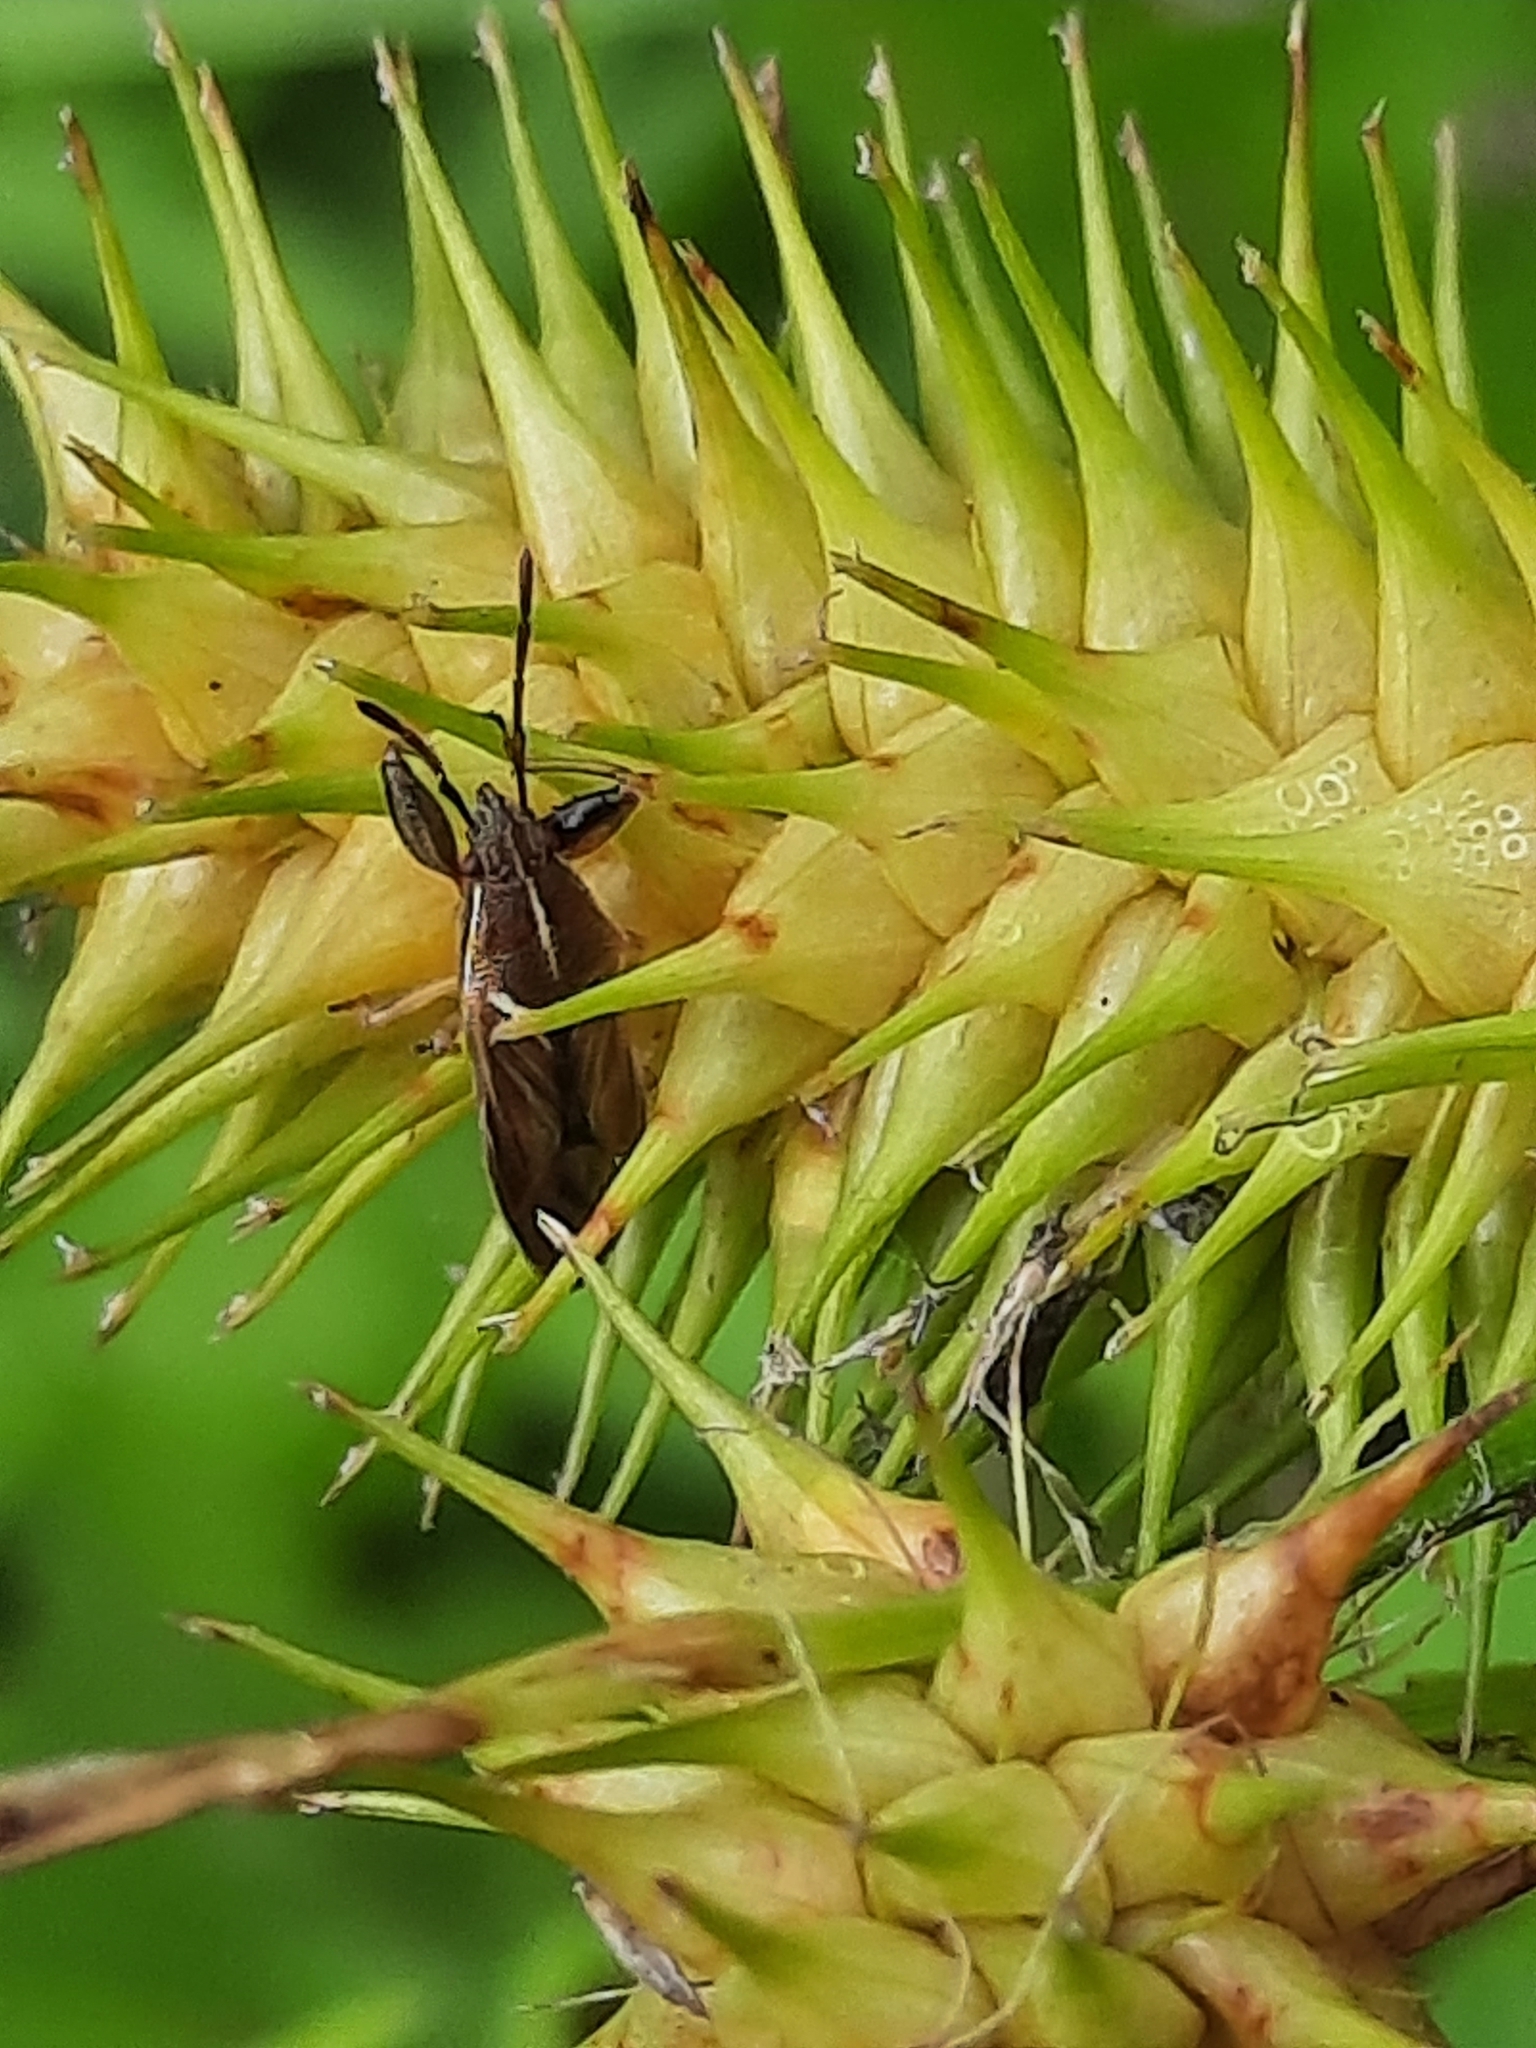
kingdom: Animalia
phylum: Arthropoda
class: Insecta
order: Hemiptera
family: Pachygronthidae
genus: Oedancala
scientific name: Oedancala dorsalis
